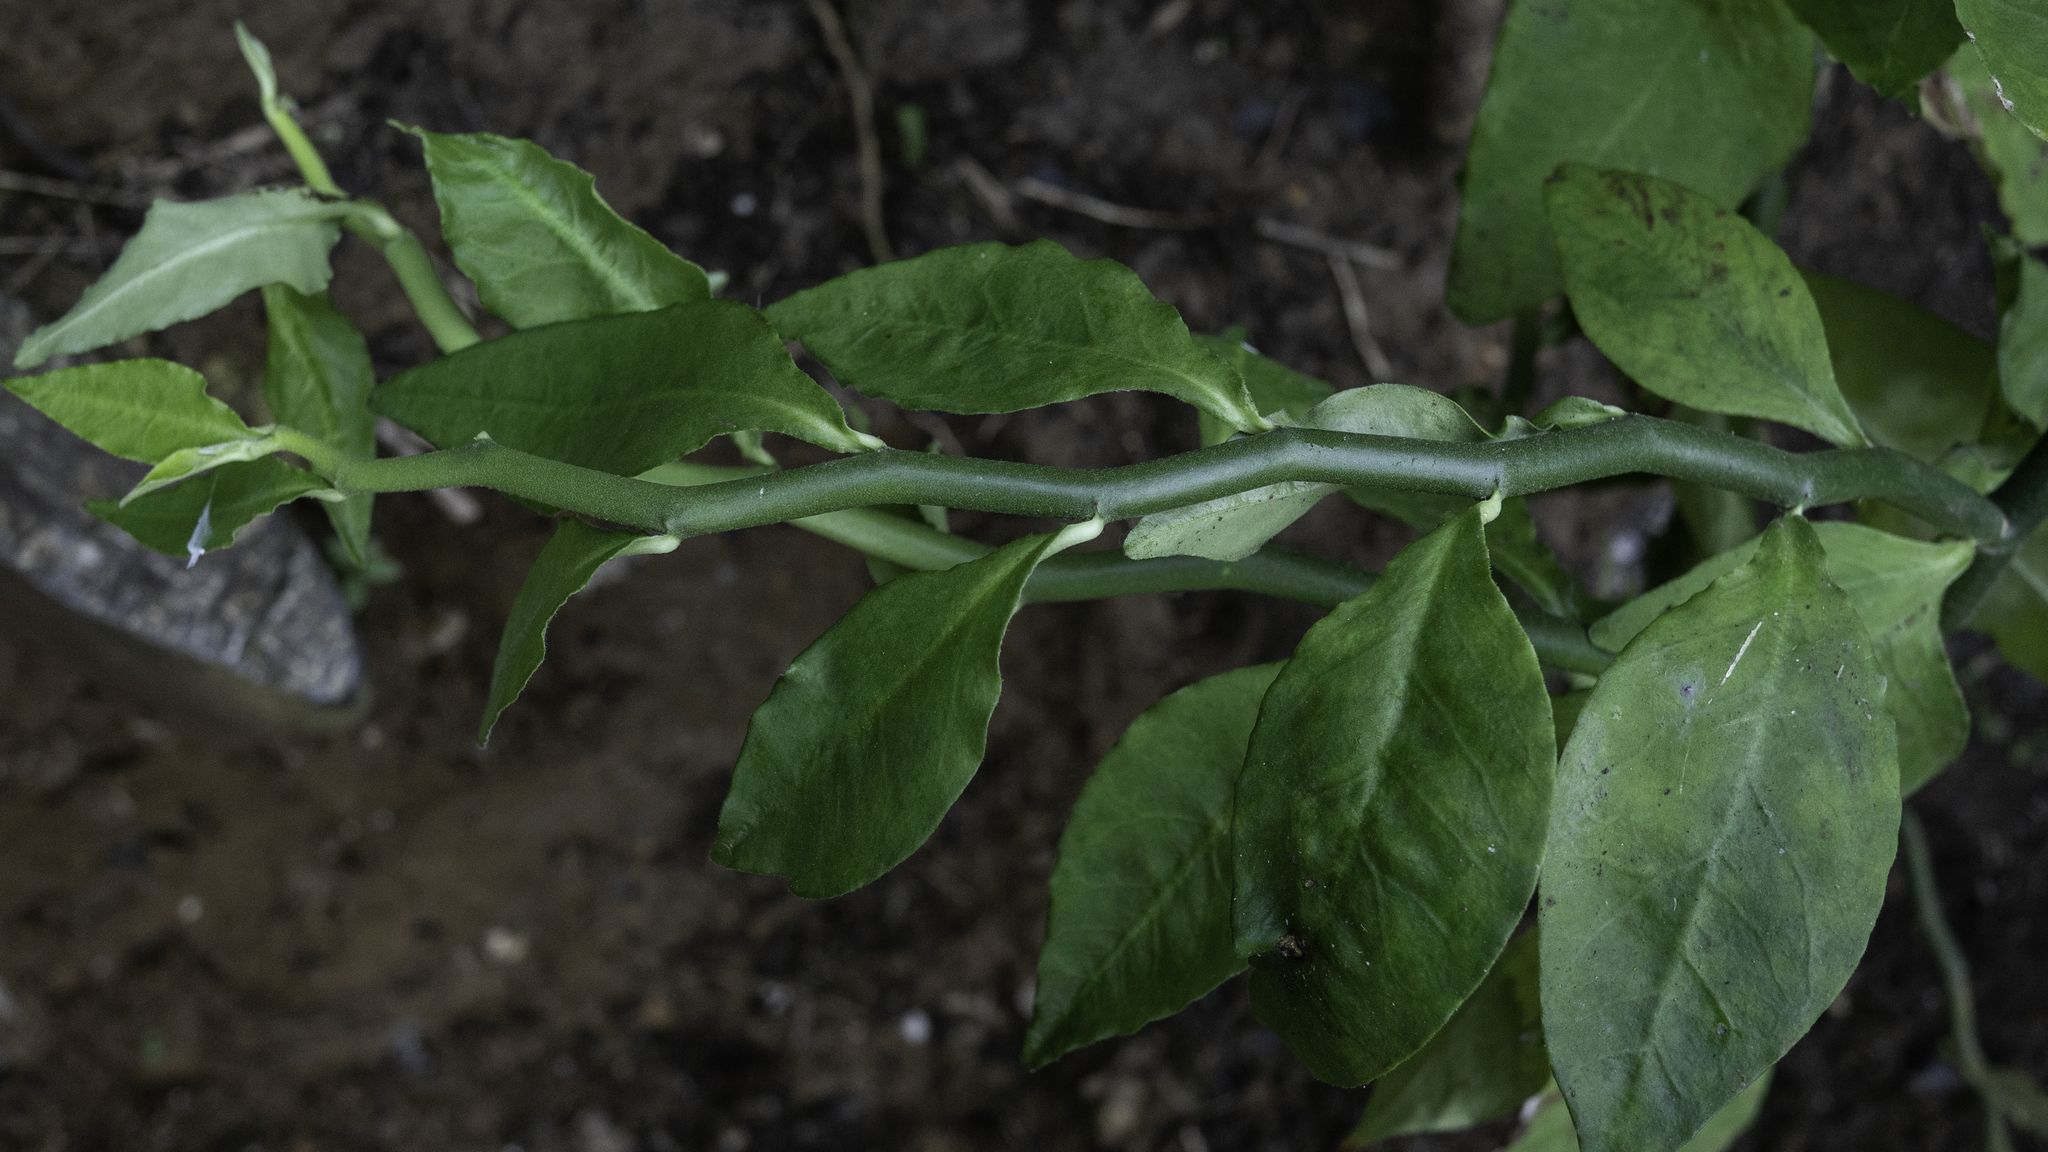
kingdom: Plantae
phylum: Tracheophyta
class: Magnoliopsida
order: Malpighiales
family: Euphorbiaceae
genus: Euphorbia
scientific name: Euphorbia tithymaloides
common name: Slipperplant
